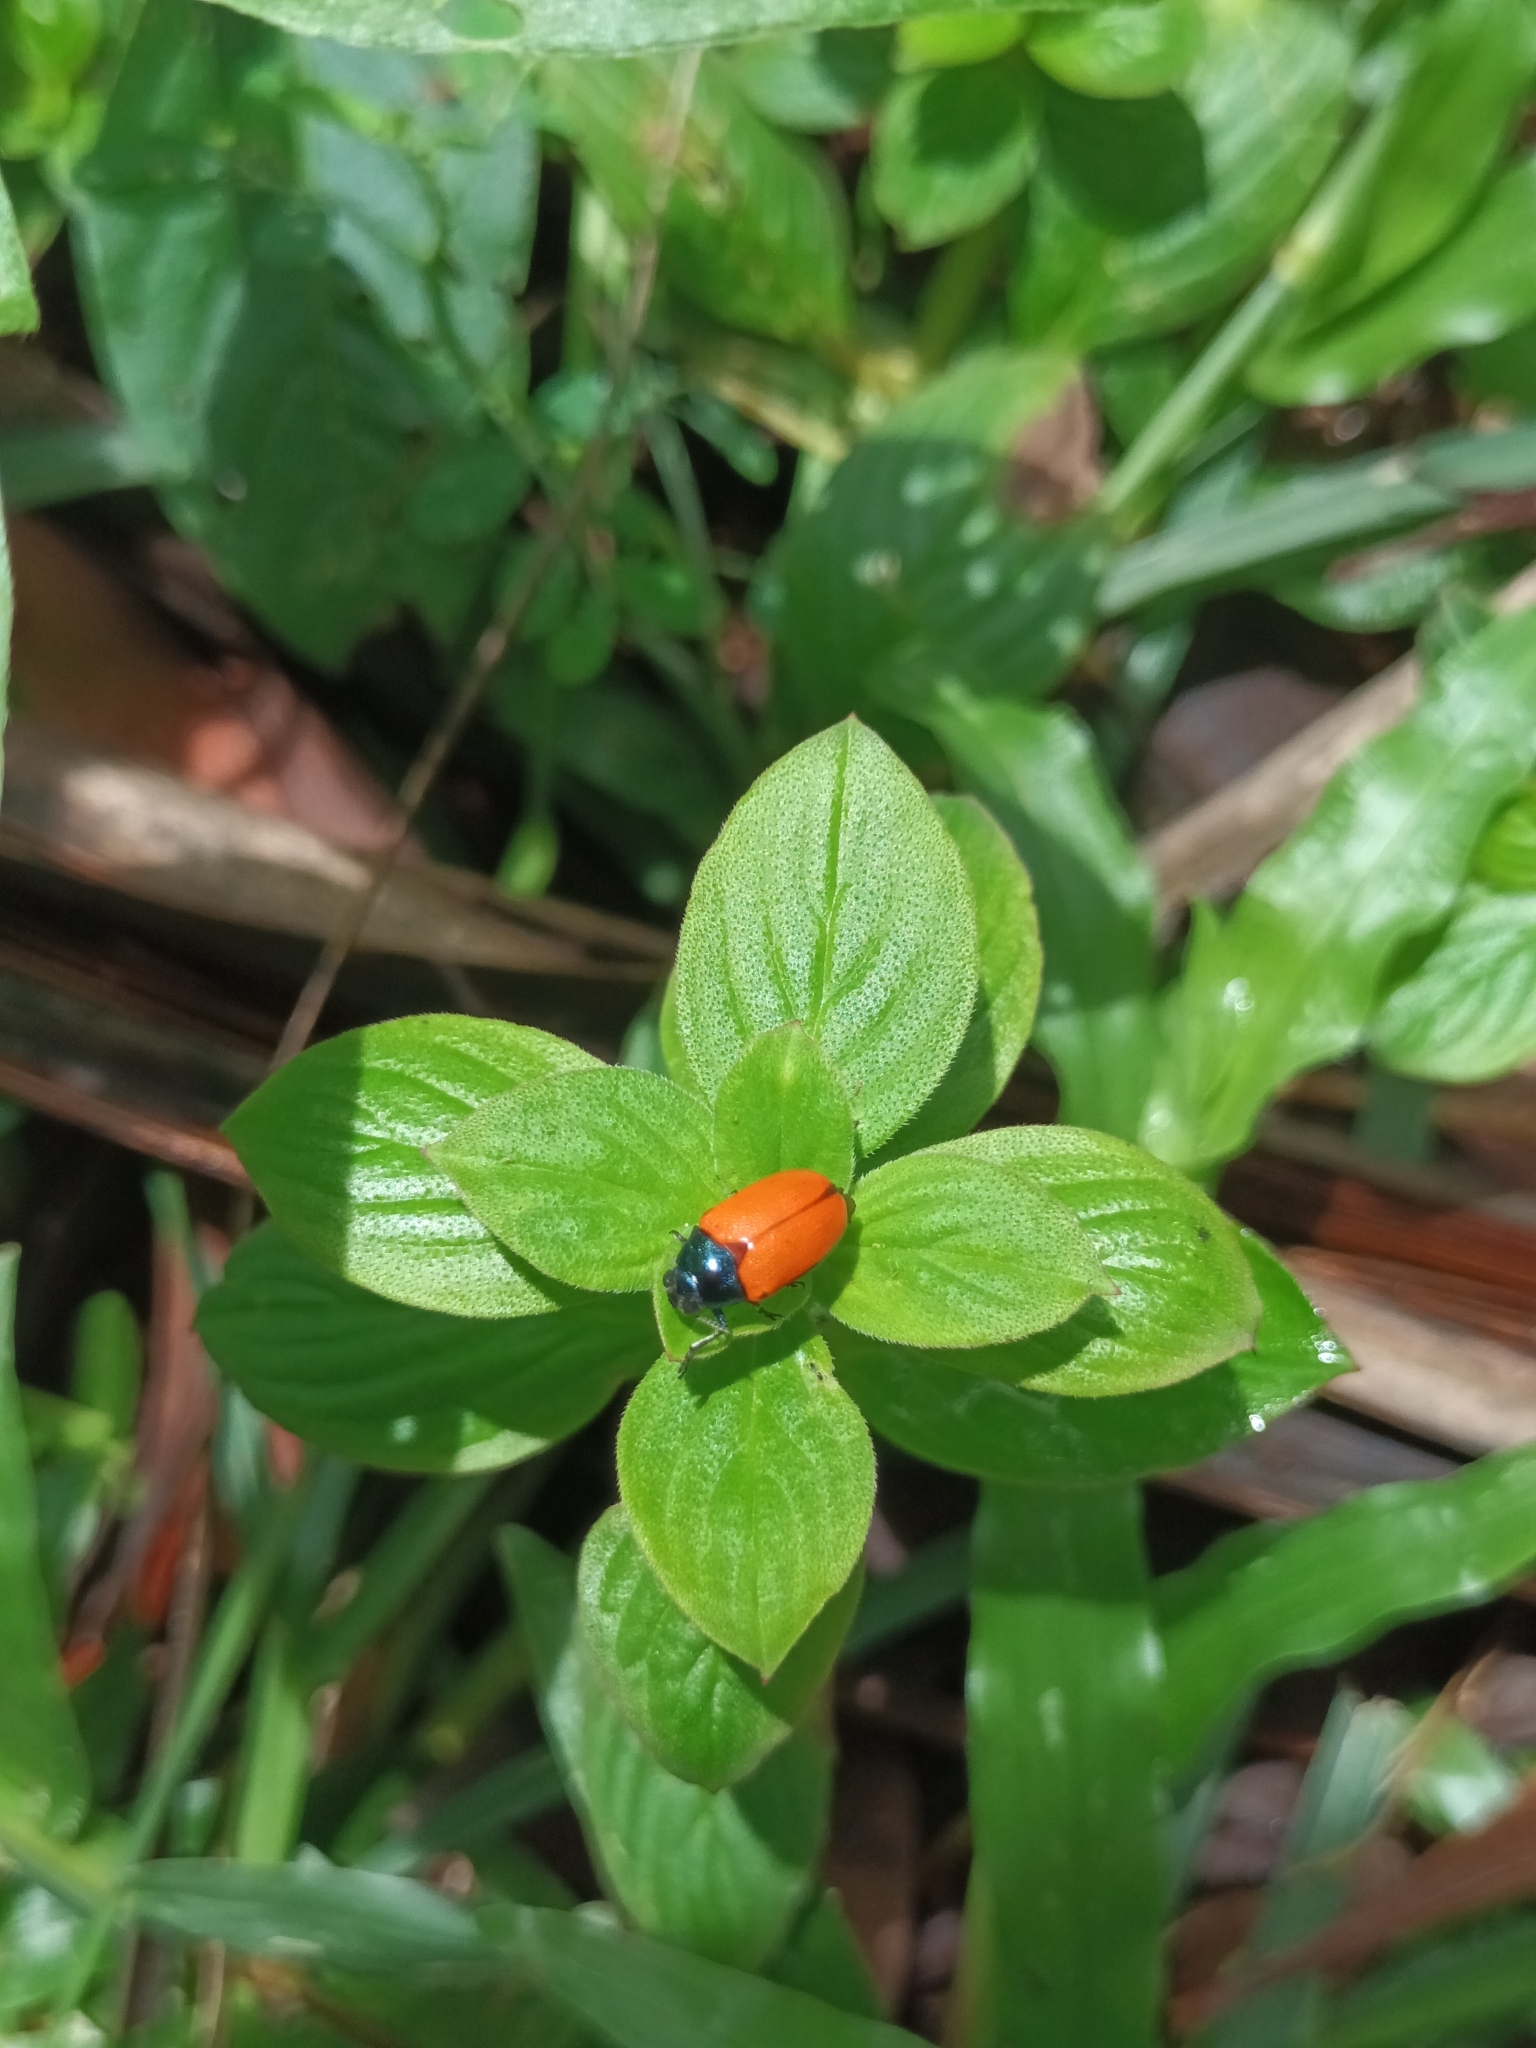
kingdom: Animalia
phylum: Arthropoda
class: Insecta
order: Coleoptera
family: Chrysomelidae
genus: Aspidolopha
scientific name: Aspidolopha
